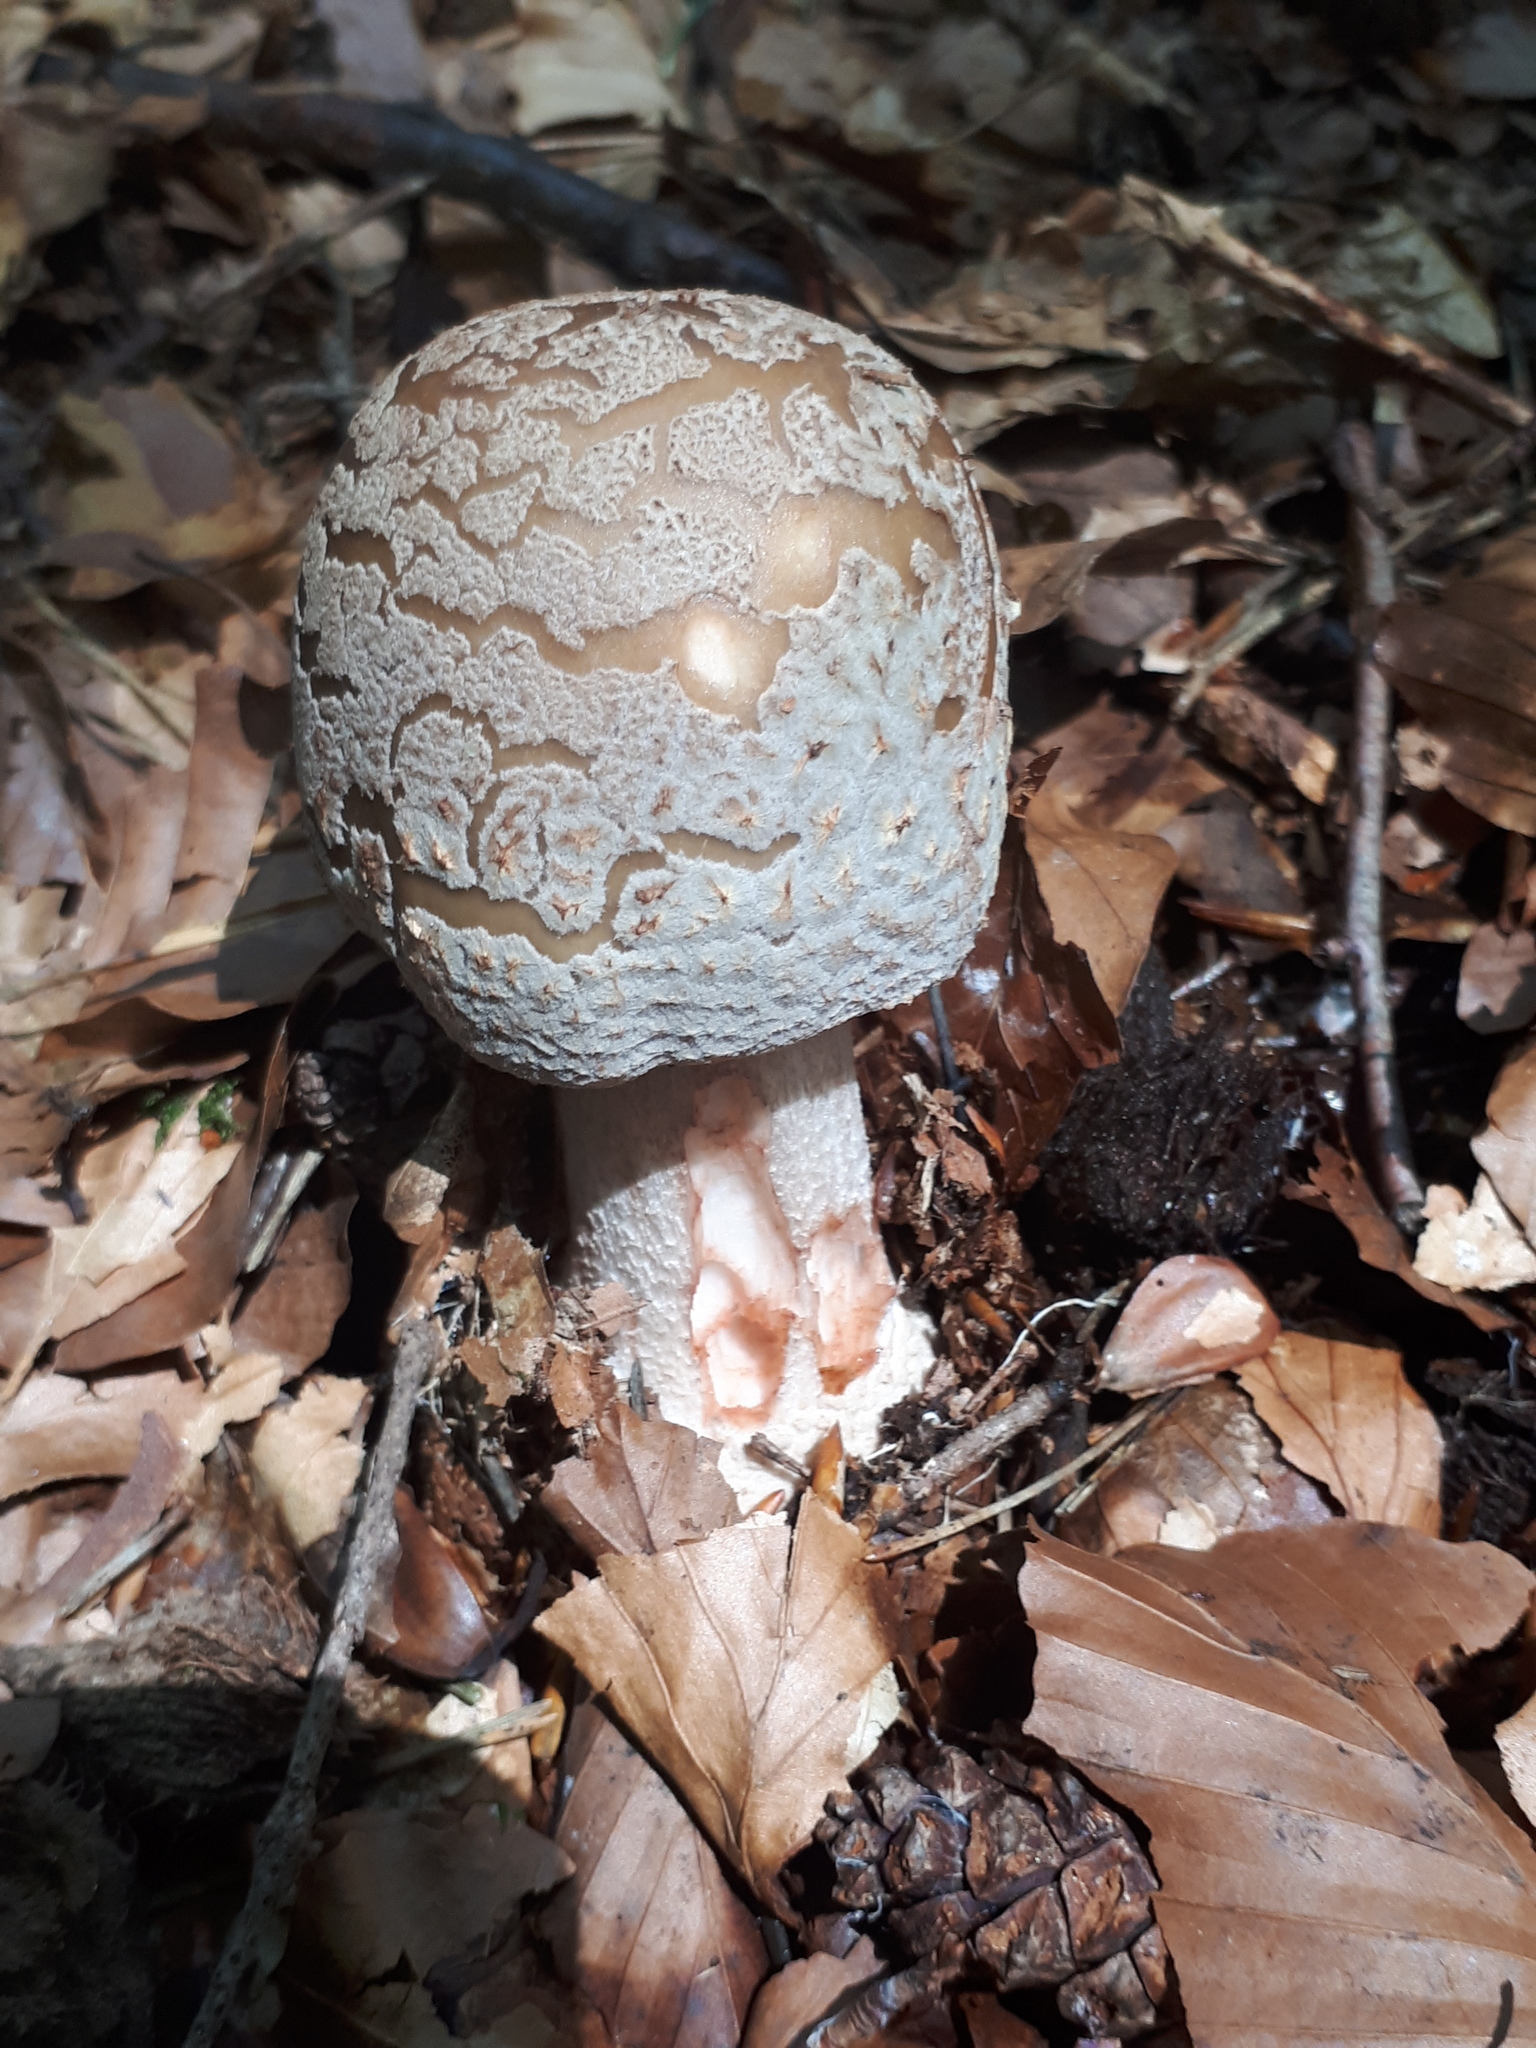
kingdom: Fungi
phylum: Basidiomycota
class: Agaricomycetes
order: Agaricales
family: Amanitaceae
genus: Amanita
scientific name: Amanita rubescens
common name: Blusher
